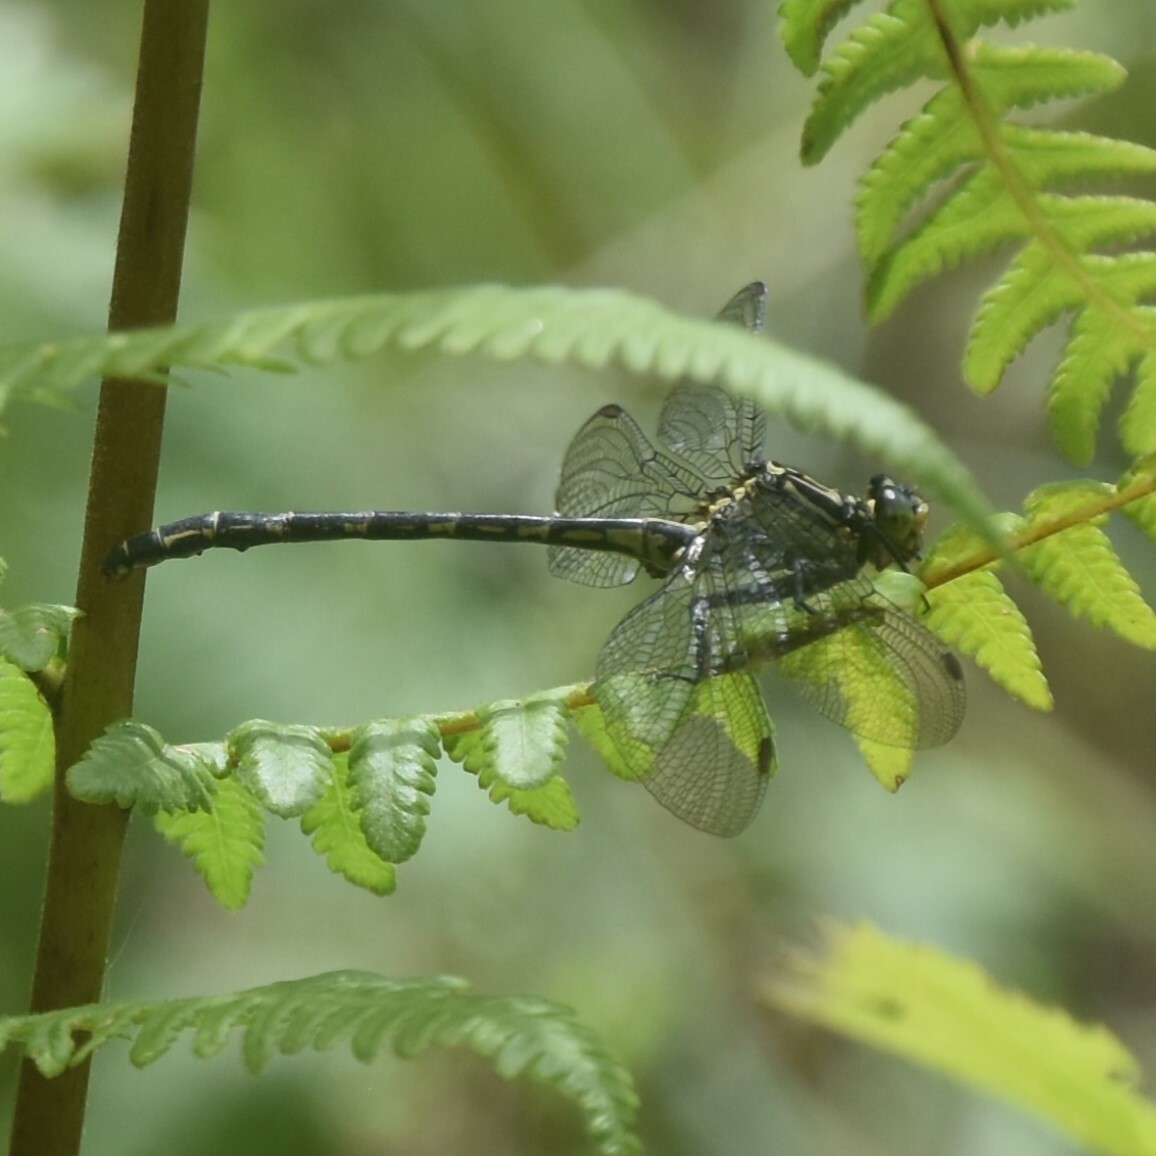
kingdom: Animalia
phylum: Arthropoda
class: Insecta
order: Odonata
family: Gomphidae
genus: Davidius
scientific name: Davidius aberrans
